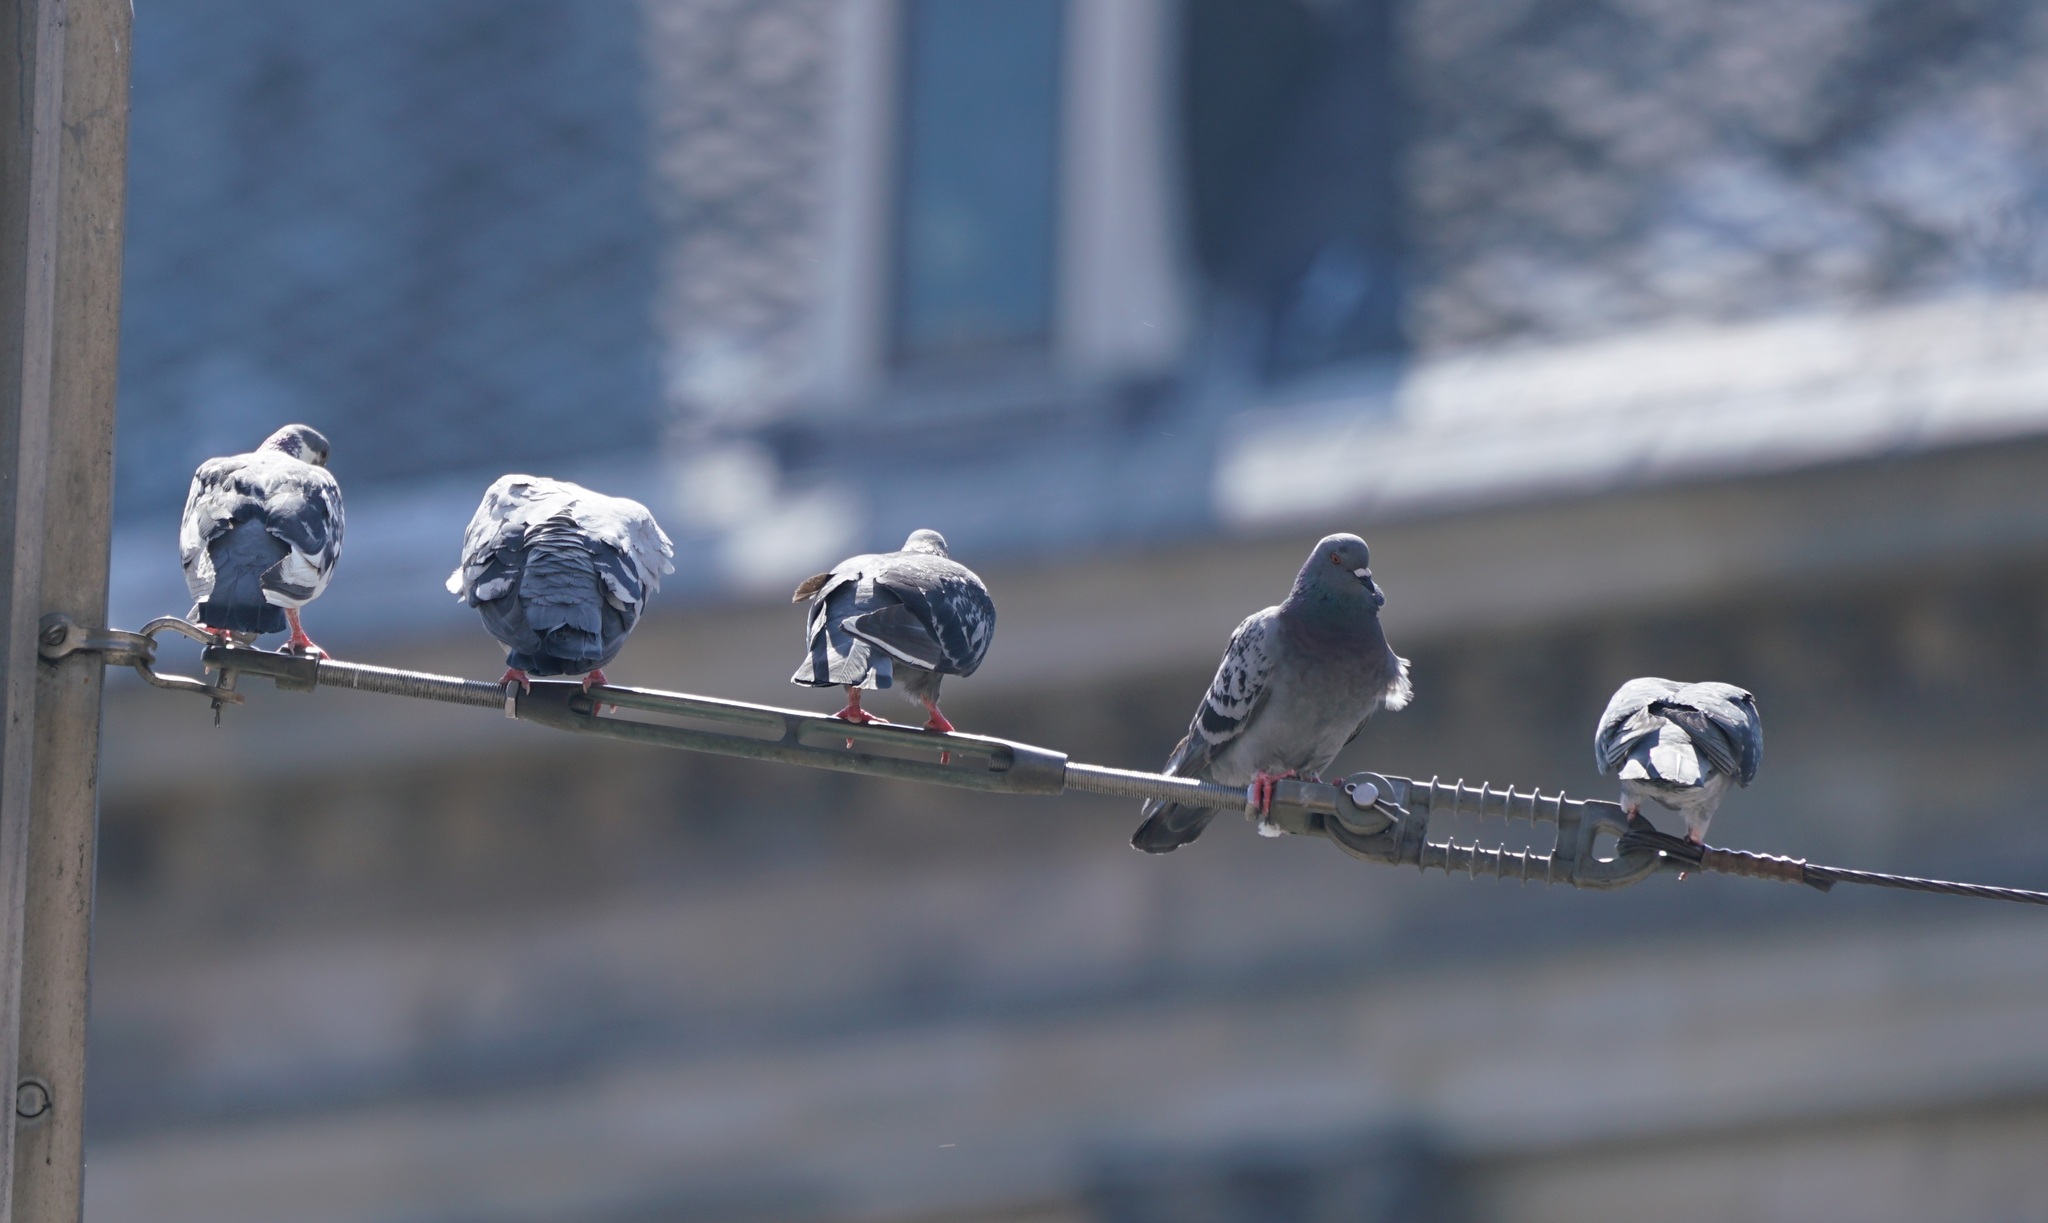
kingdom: Animalia
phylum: Chordata
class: Aves
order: Columbiformes
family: Columbidae
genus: Columba
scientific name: Columba livia
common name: Rock pigeon
